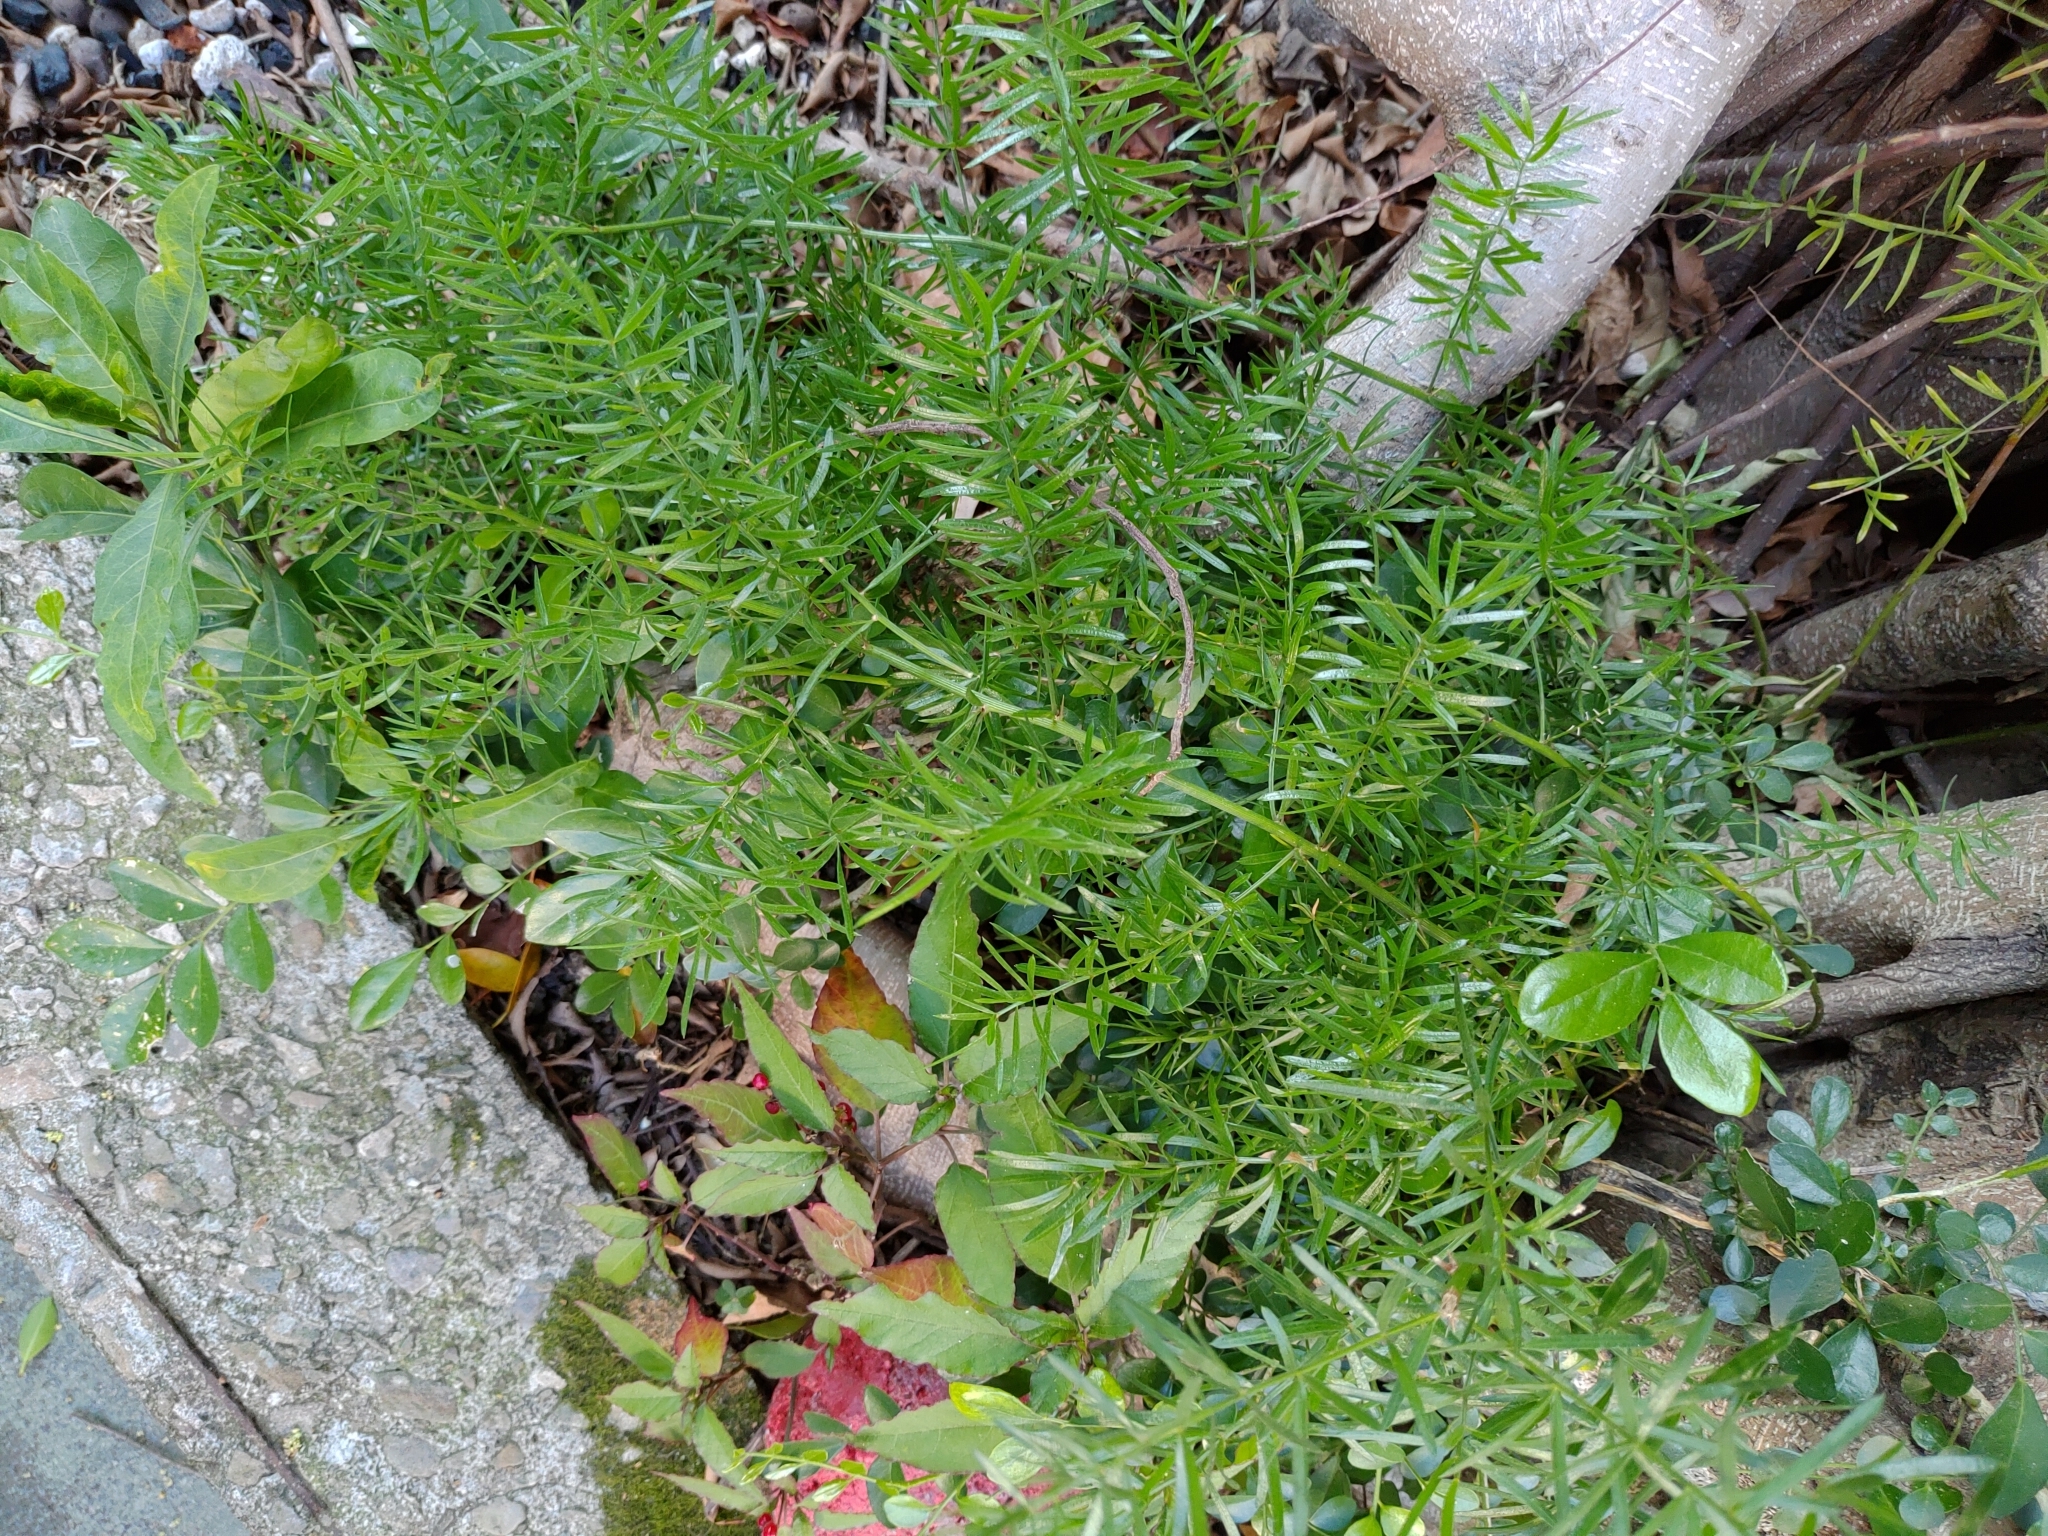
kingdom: Plantae
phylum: Tracheophyta
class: Liliopsida
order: Asparagales
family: Asparagaceae
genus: Asparagus
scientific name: Asparagus cochinchinensis
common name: Chinese asparagus
